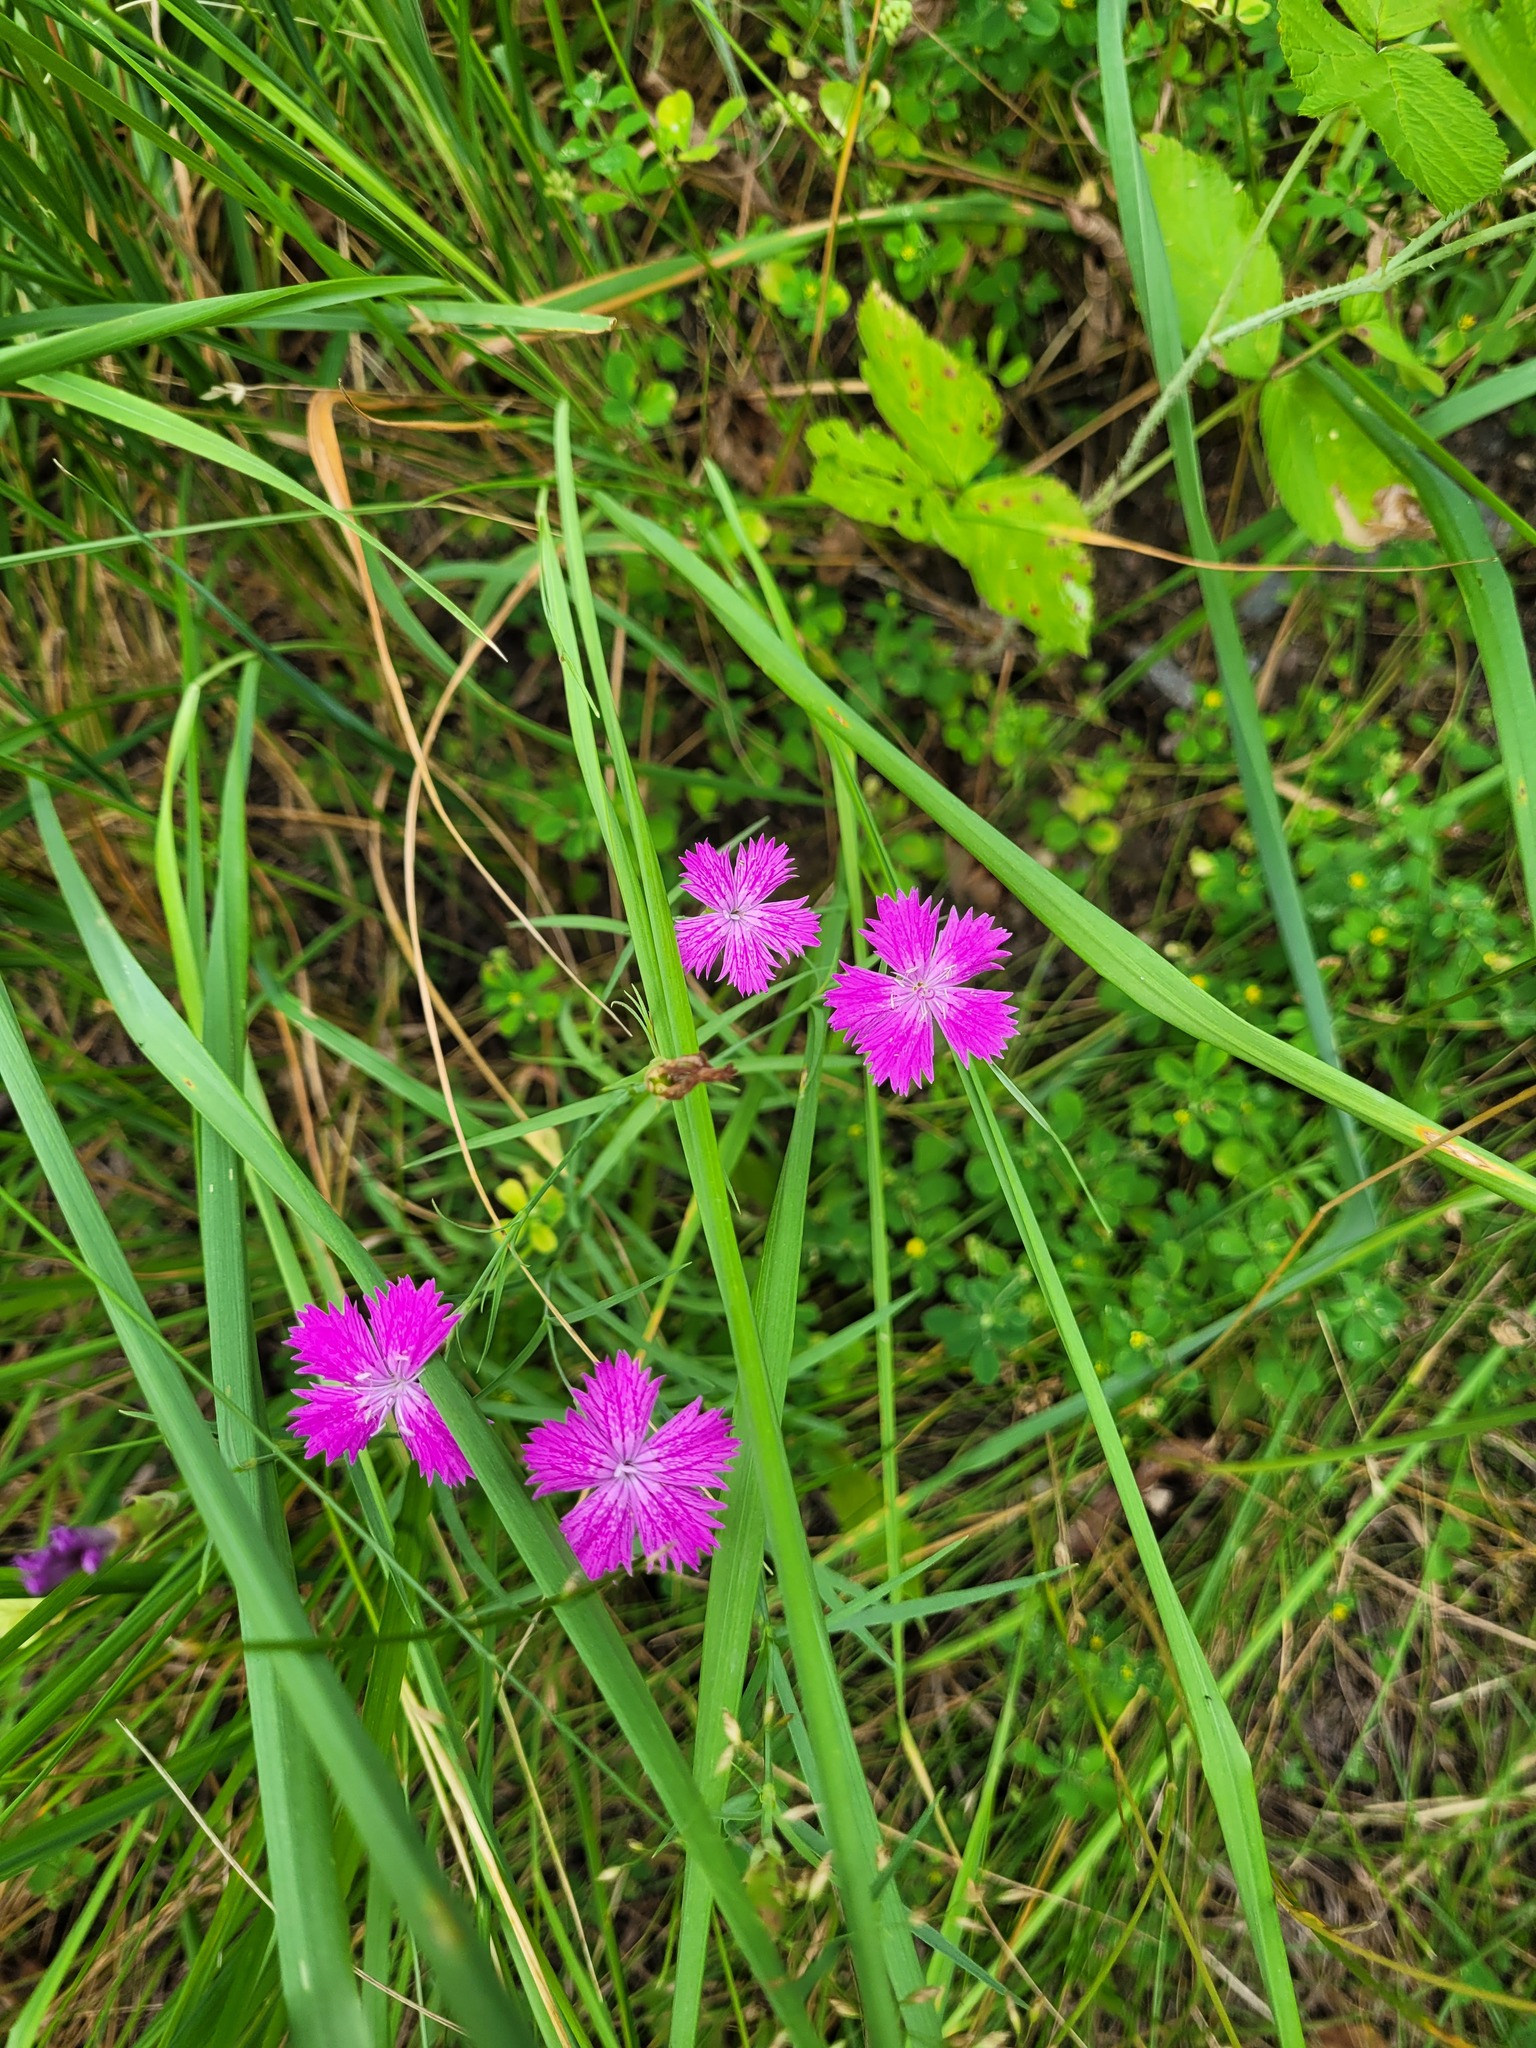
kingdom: Plantae
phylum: Tracheophyta
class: Magnoliopsida
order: Caryophyllales
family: Caryophyllaceae
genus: Dianthus
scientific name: Dianthus chinensis
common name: Rainbow pink
